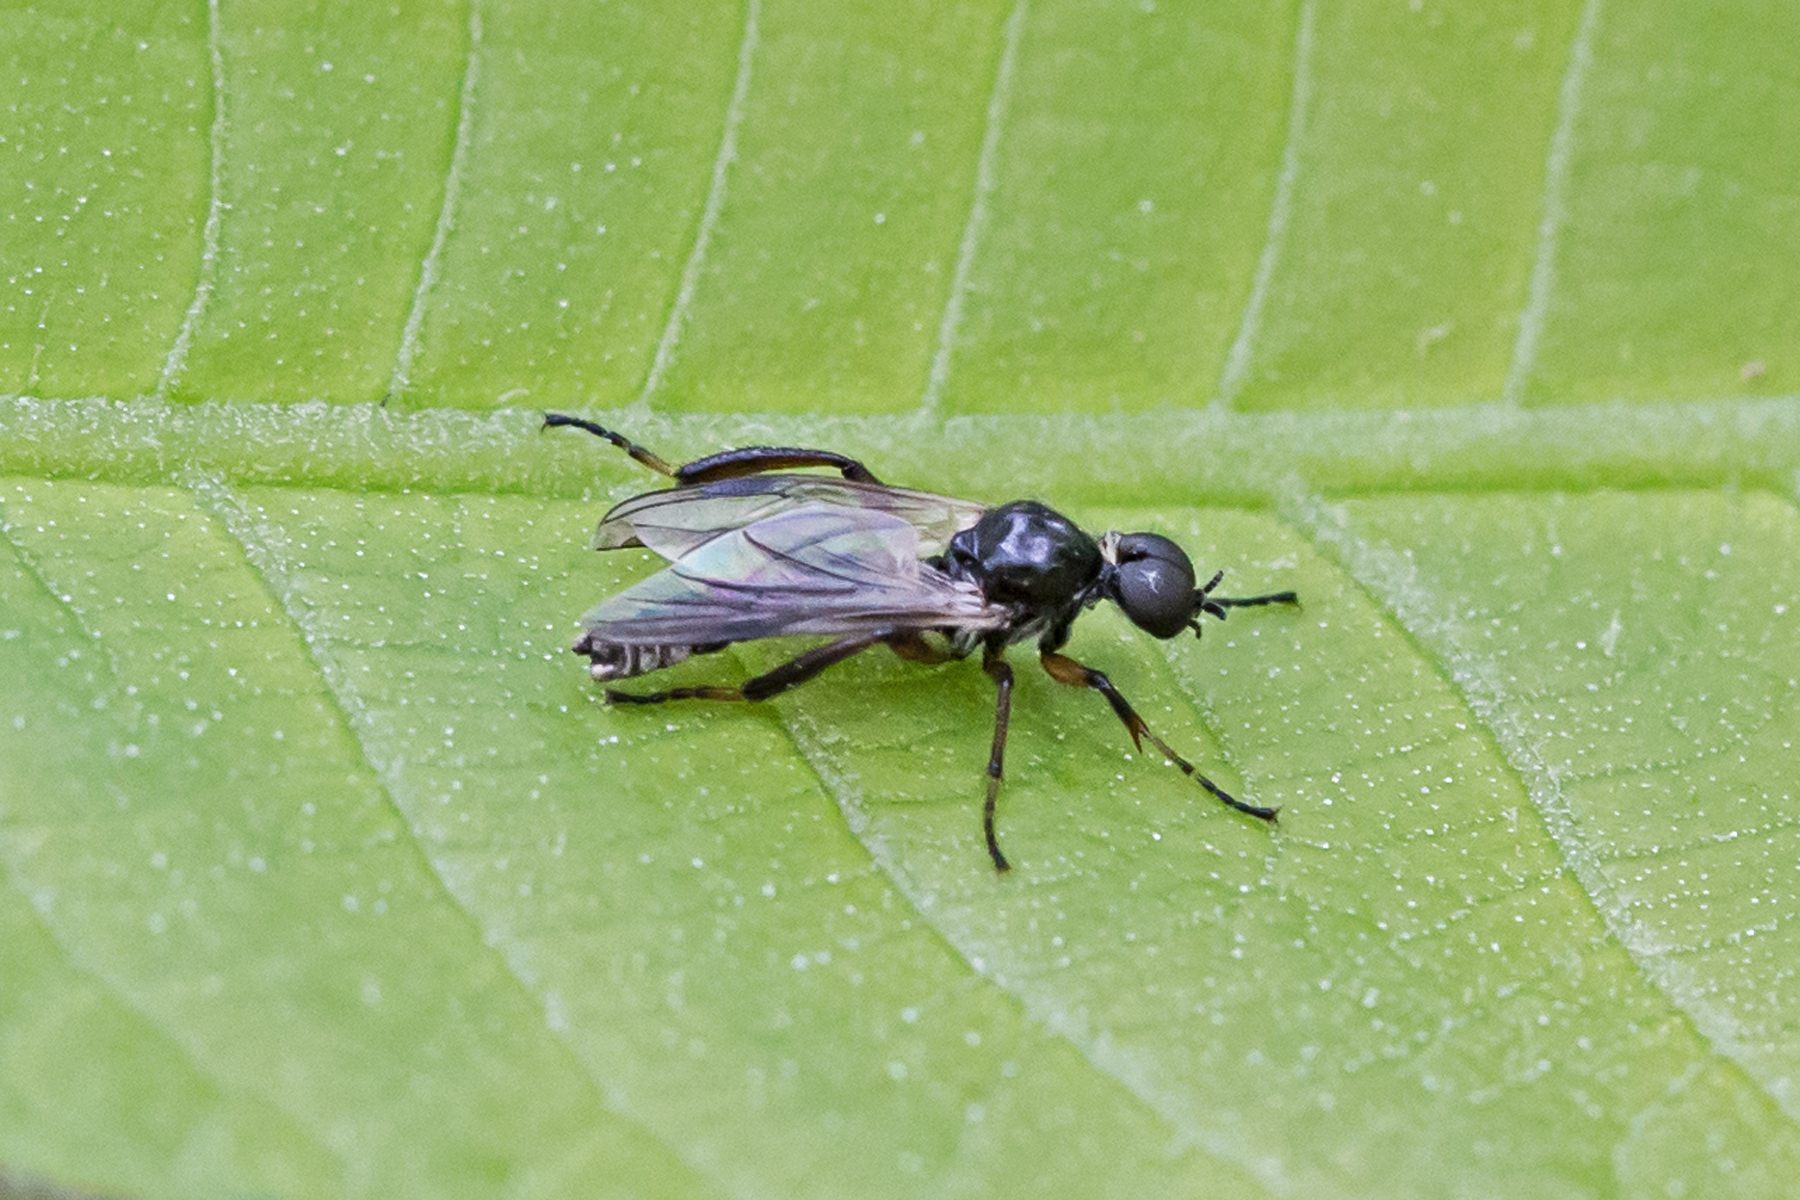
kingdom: Animalia
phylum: Arthropoda
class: Insecta
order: Diptera
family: Bibionidae
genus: Bibio
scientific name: Bibio articulatus
